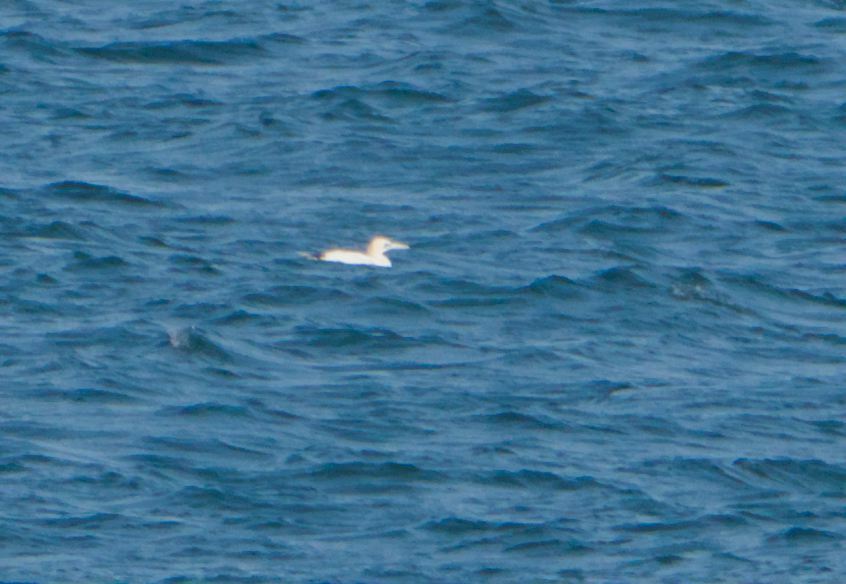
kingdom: Animalia
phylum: Chordata
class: Aves
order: Suliformes
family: Sulidae
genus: Morus
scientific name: Morus bassanus
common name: Northern gannet
